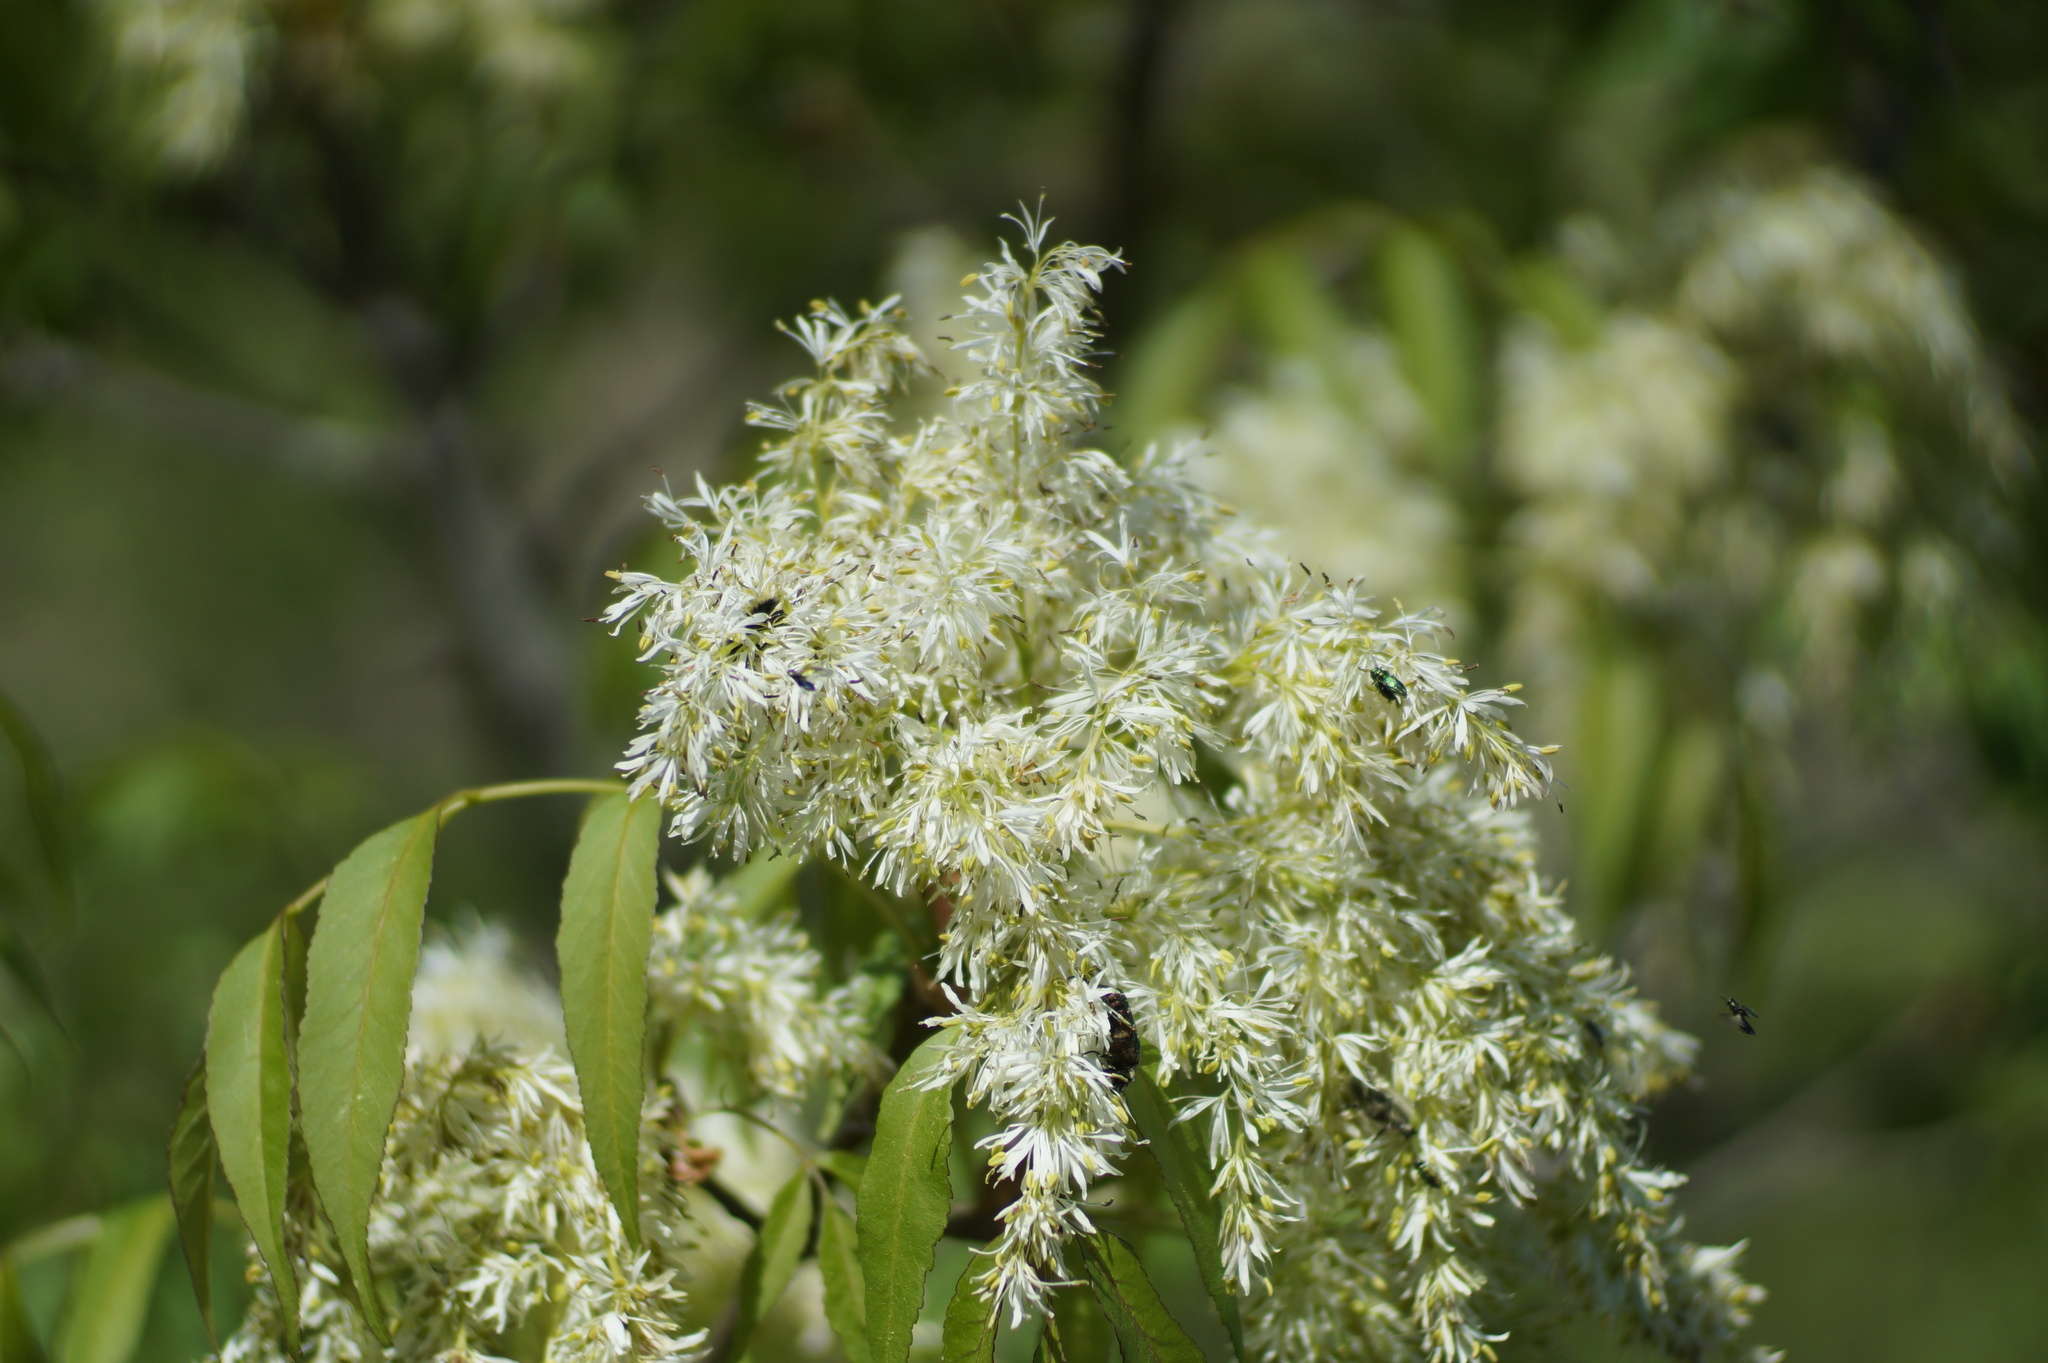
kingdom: Plantae
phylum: Tracheophyta
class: Magnoliopsida
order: Lamiales
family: Oleaceae
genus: Fraxinus
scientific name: Fraxinus ornus
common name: Manna ash
